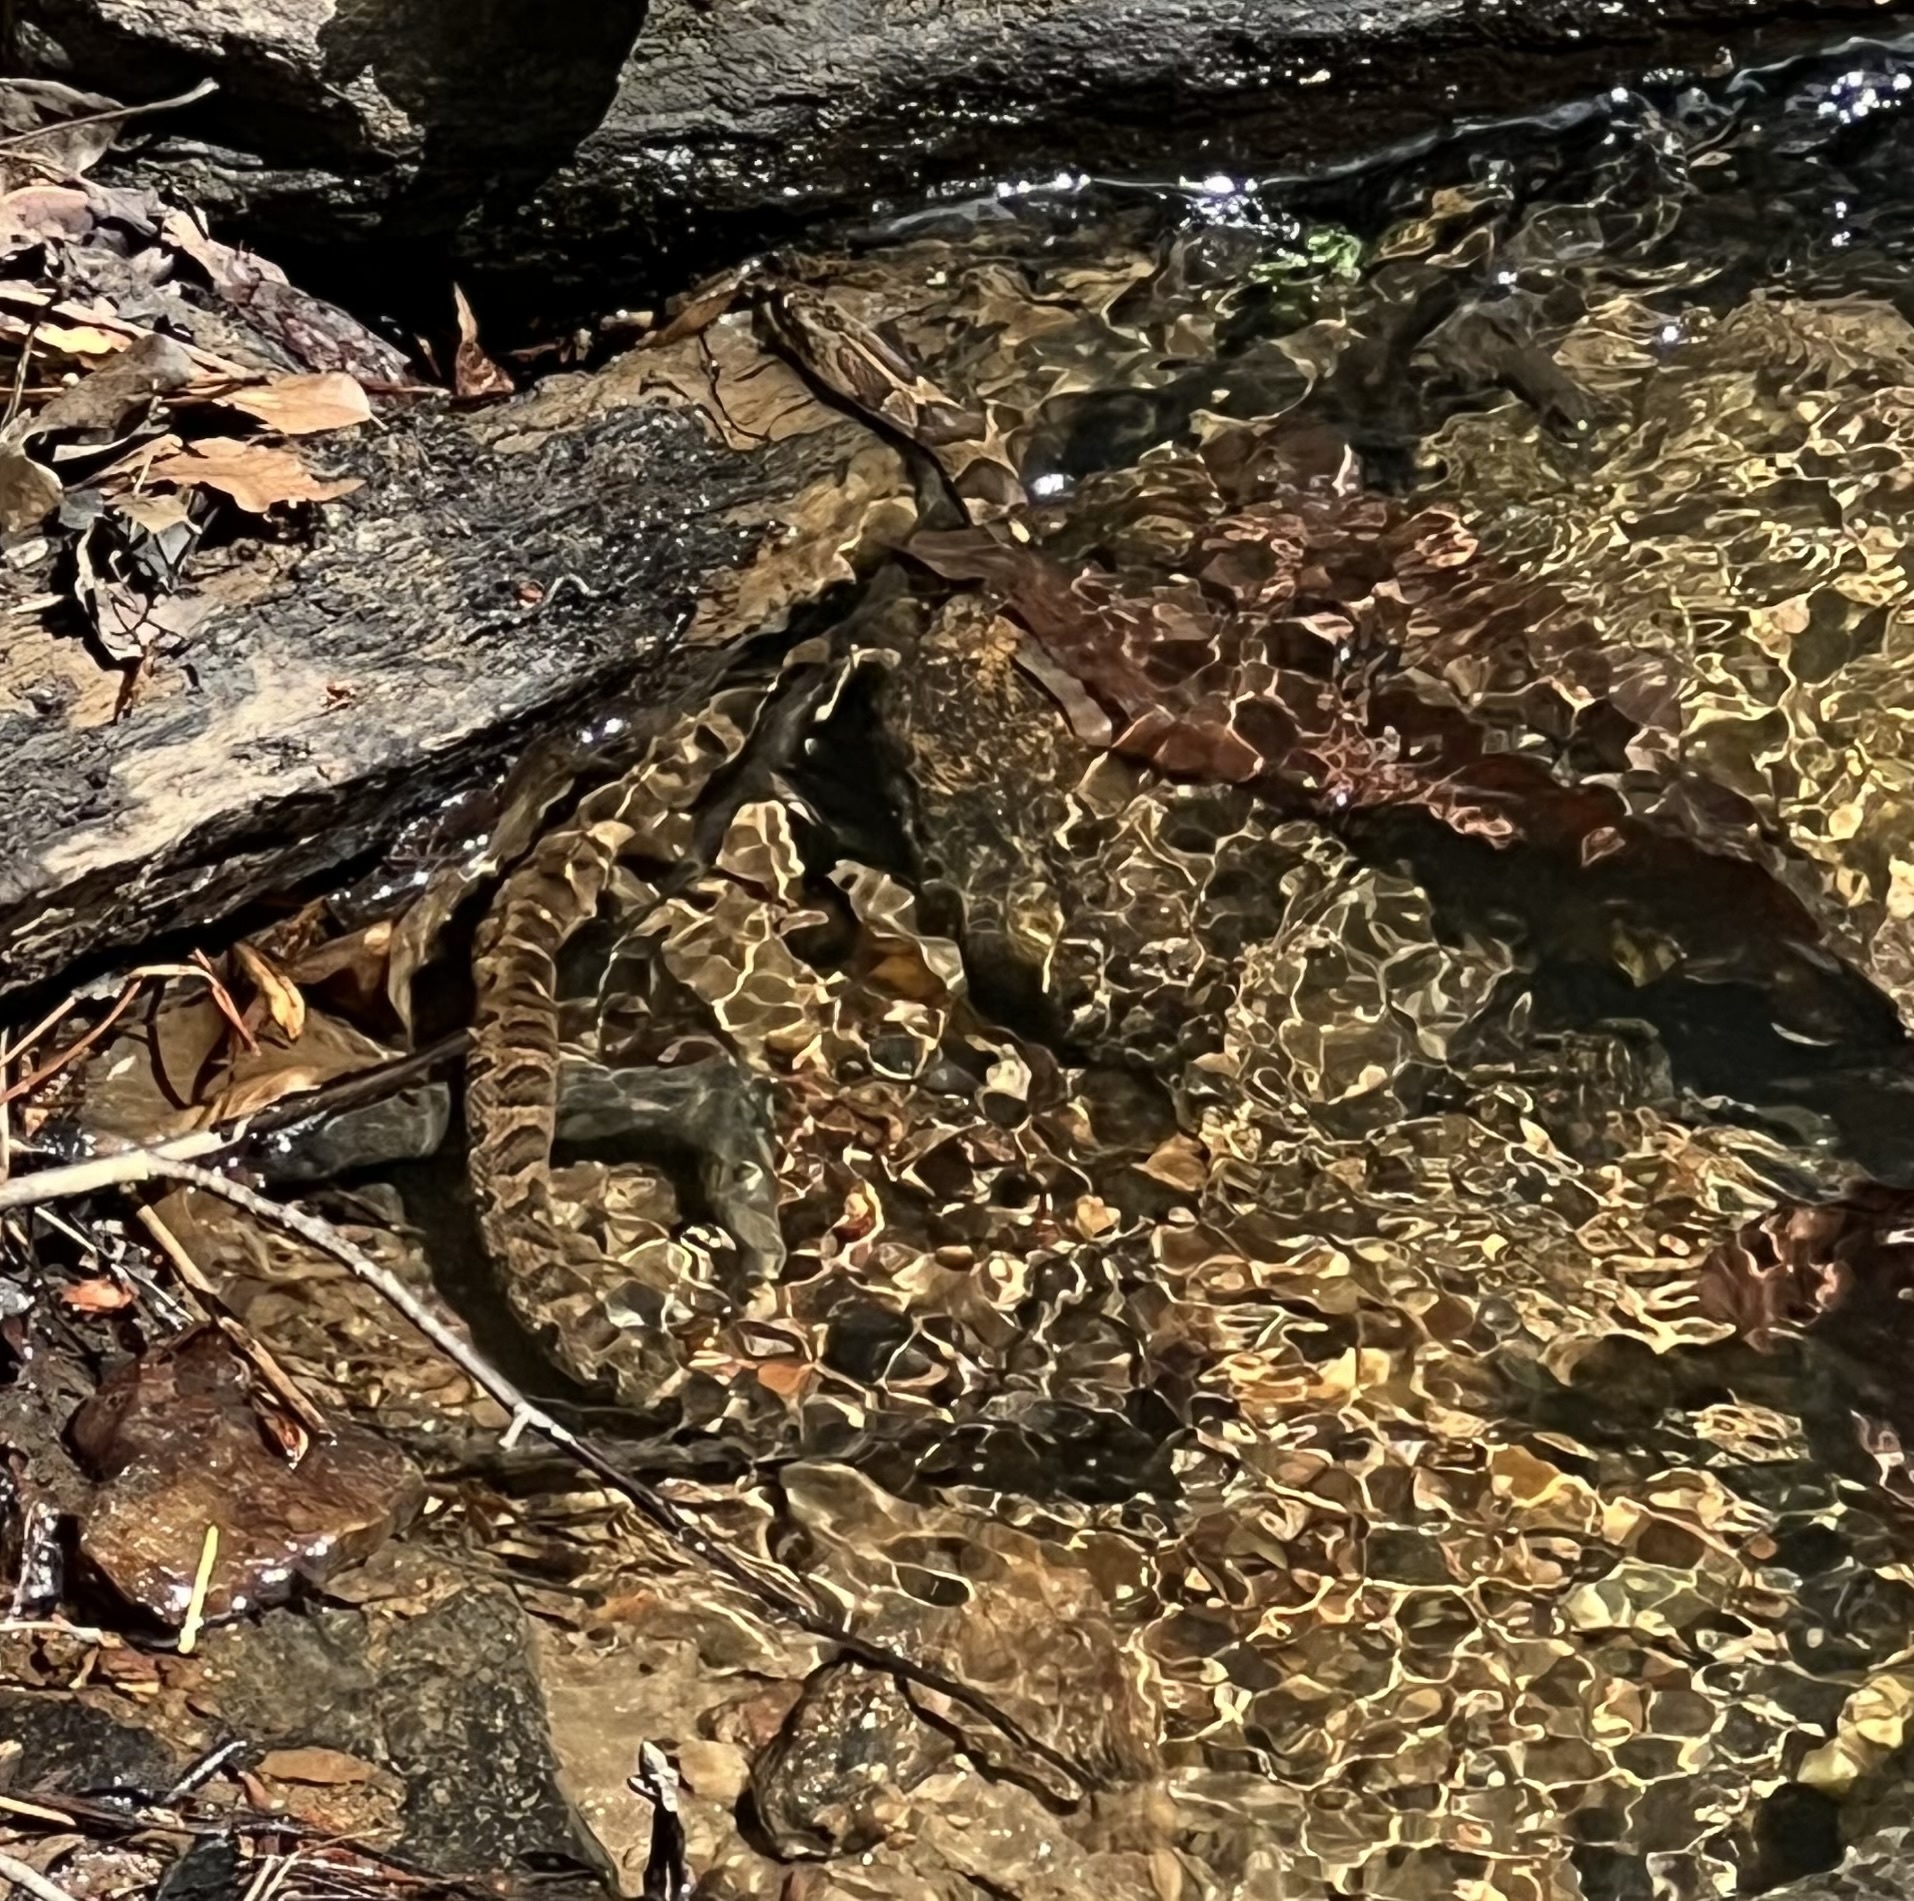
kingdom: Animalia
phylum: Chordata
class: Squamata
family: Colubridae
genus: Nerodia
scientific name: Nerodia sipedon
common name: Northern water snake
